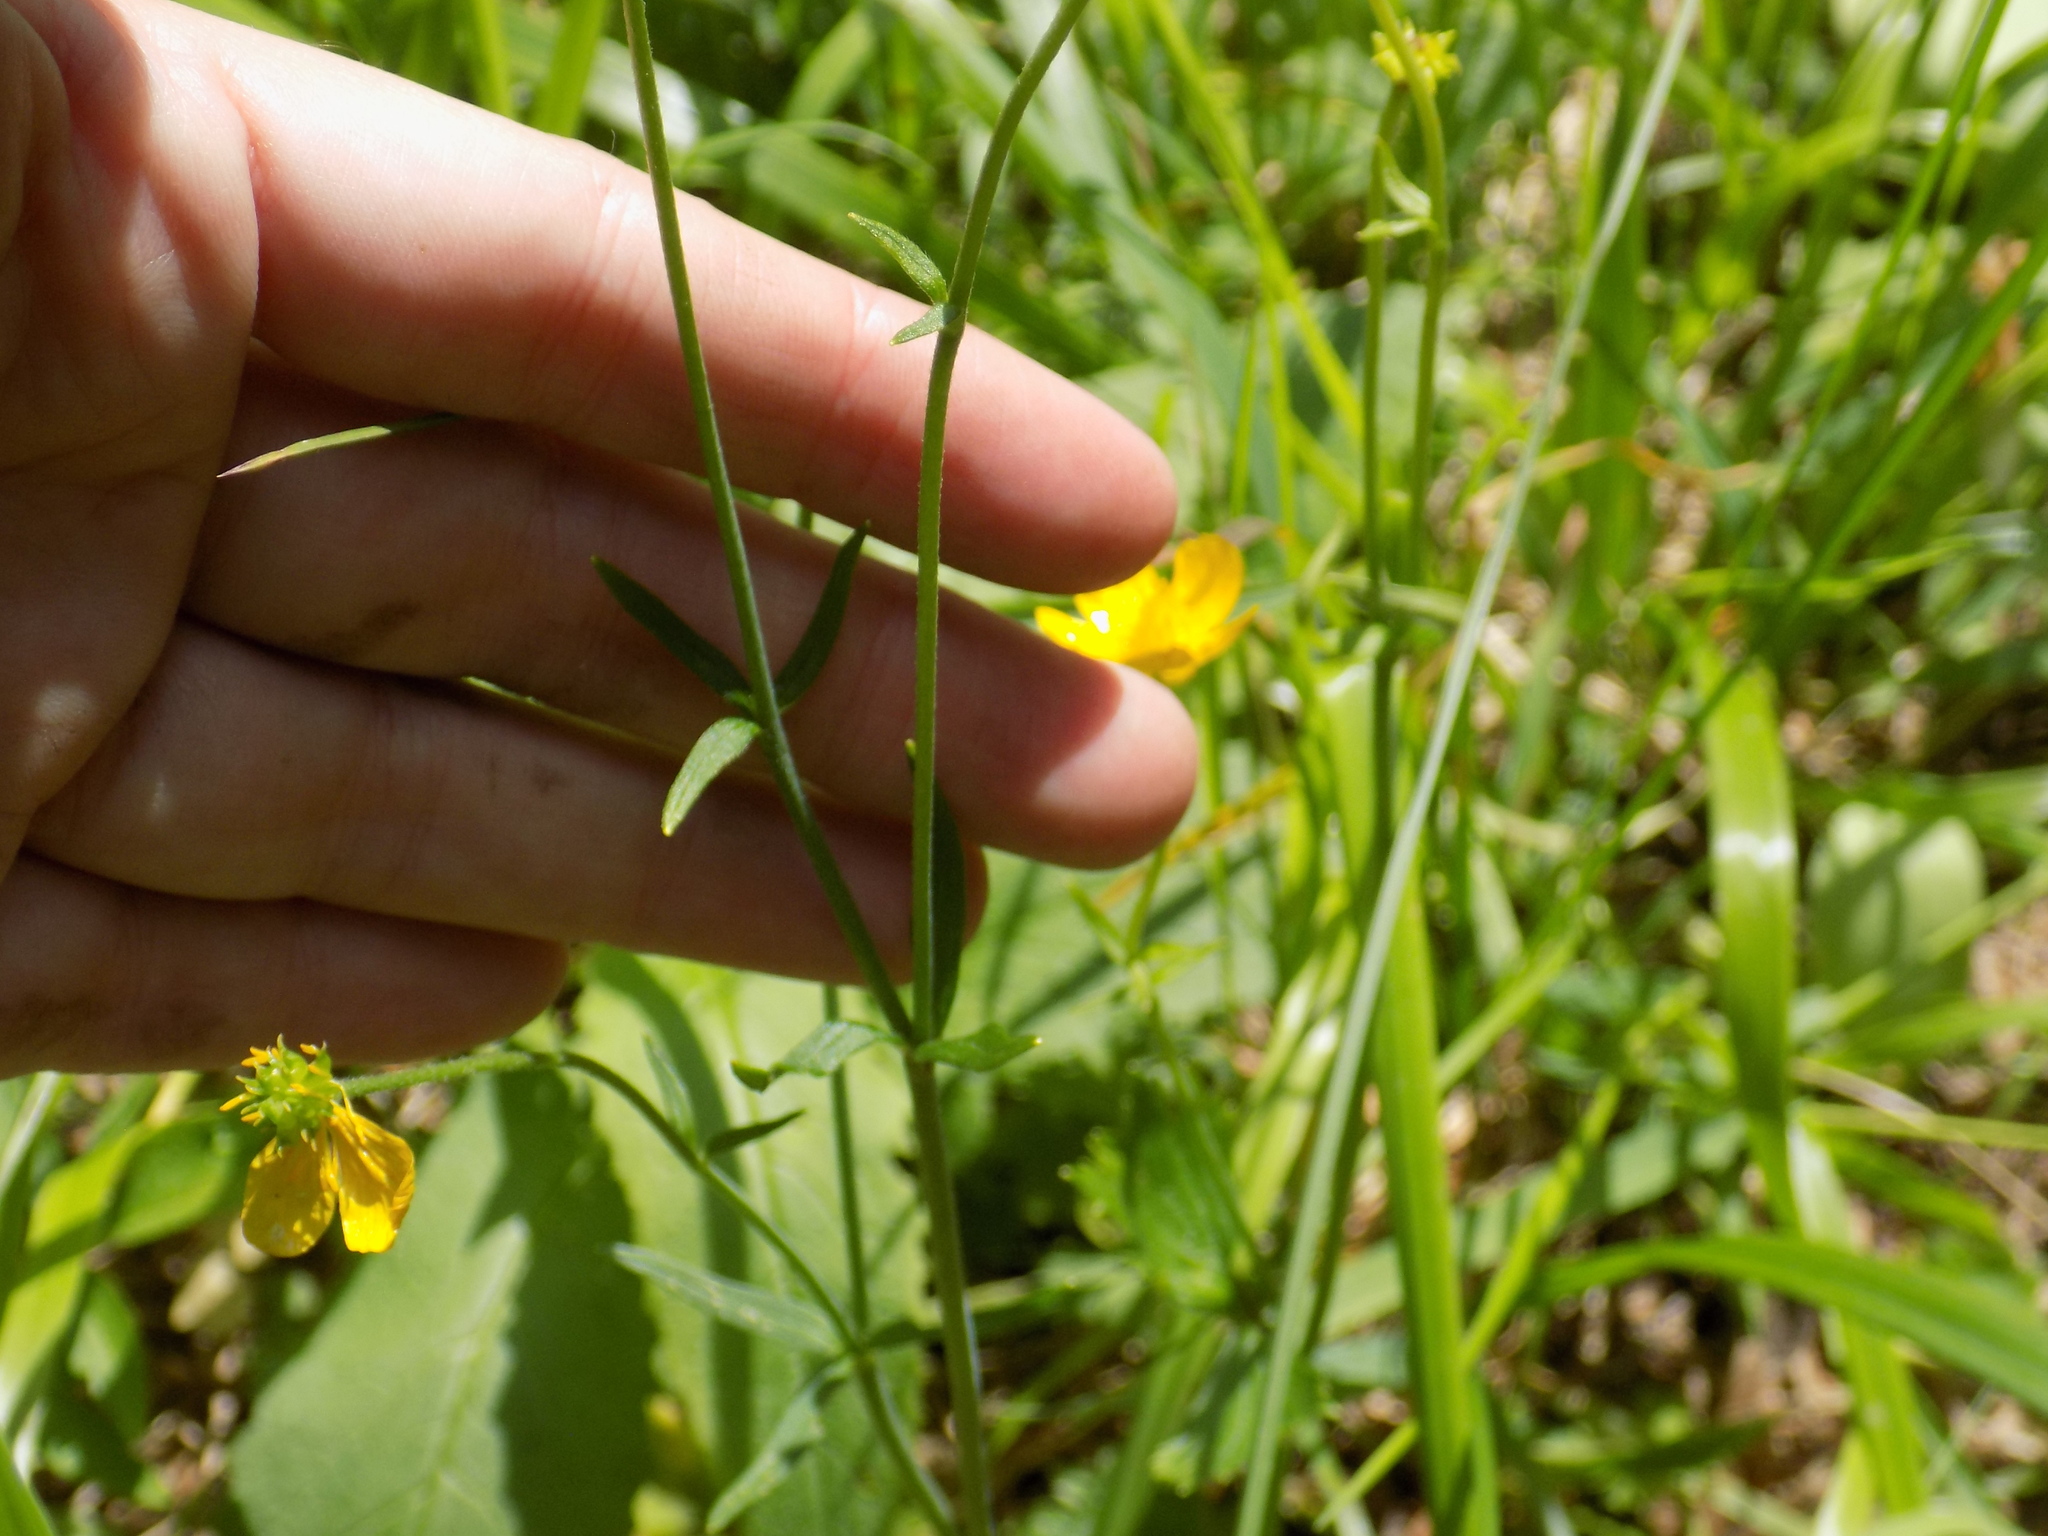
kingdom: Plantae
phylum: Tracheophyta
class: Magnoliopsida
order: Ranunculales
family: Ranunculaceae
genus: Ranunculus
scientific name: Ranunculus propinquus
